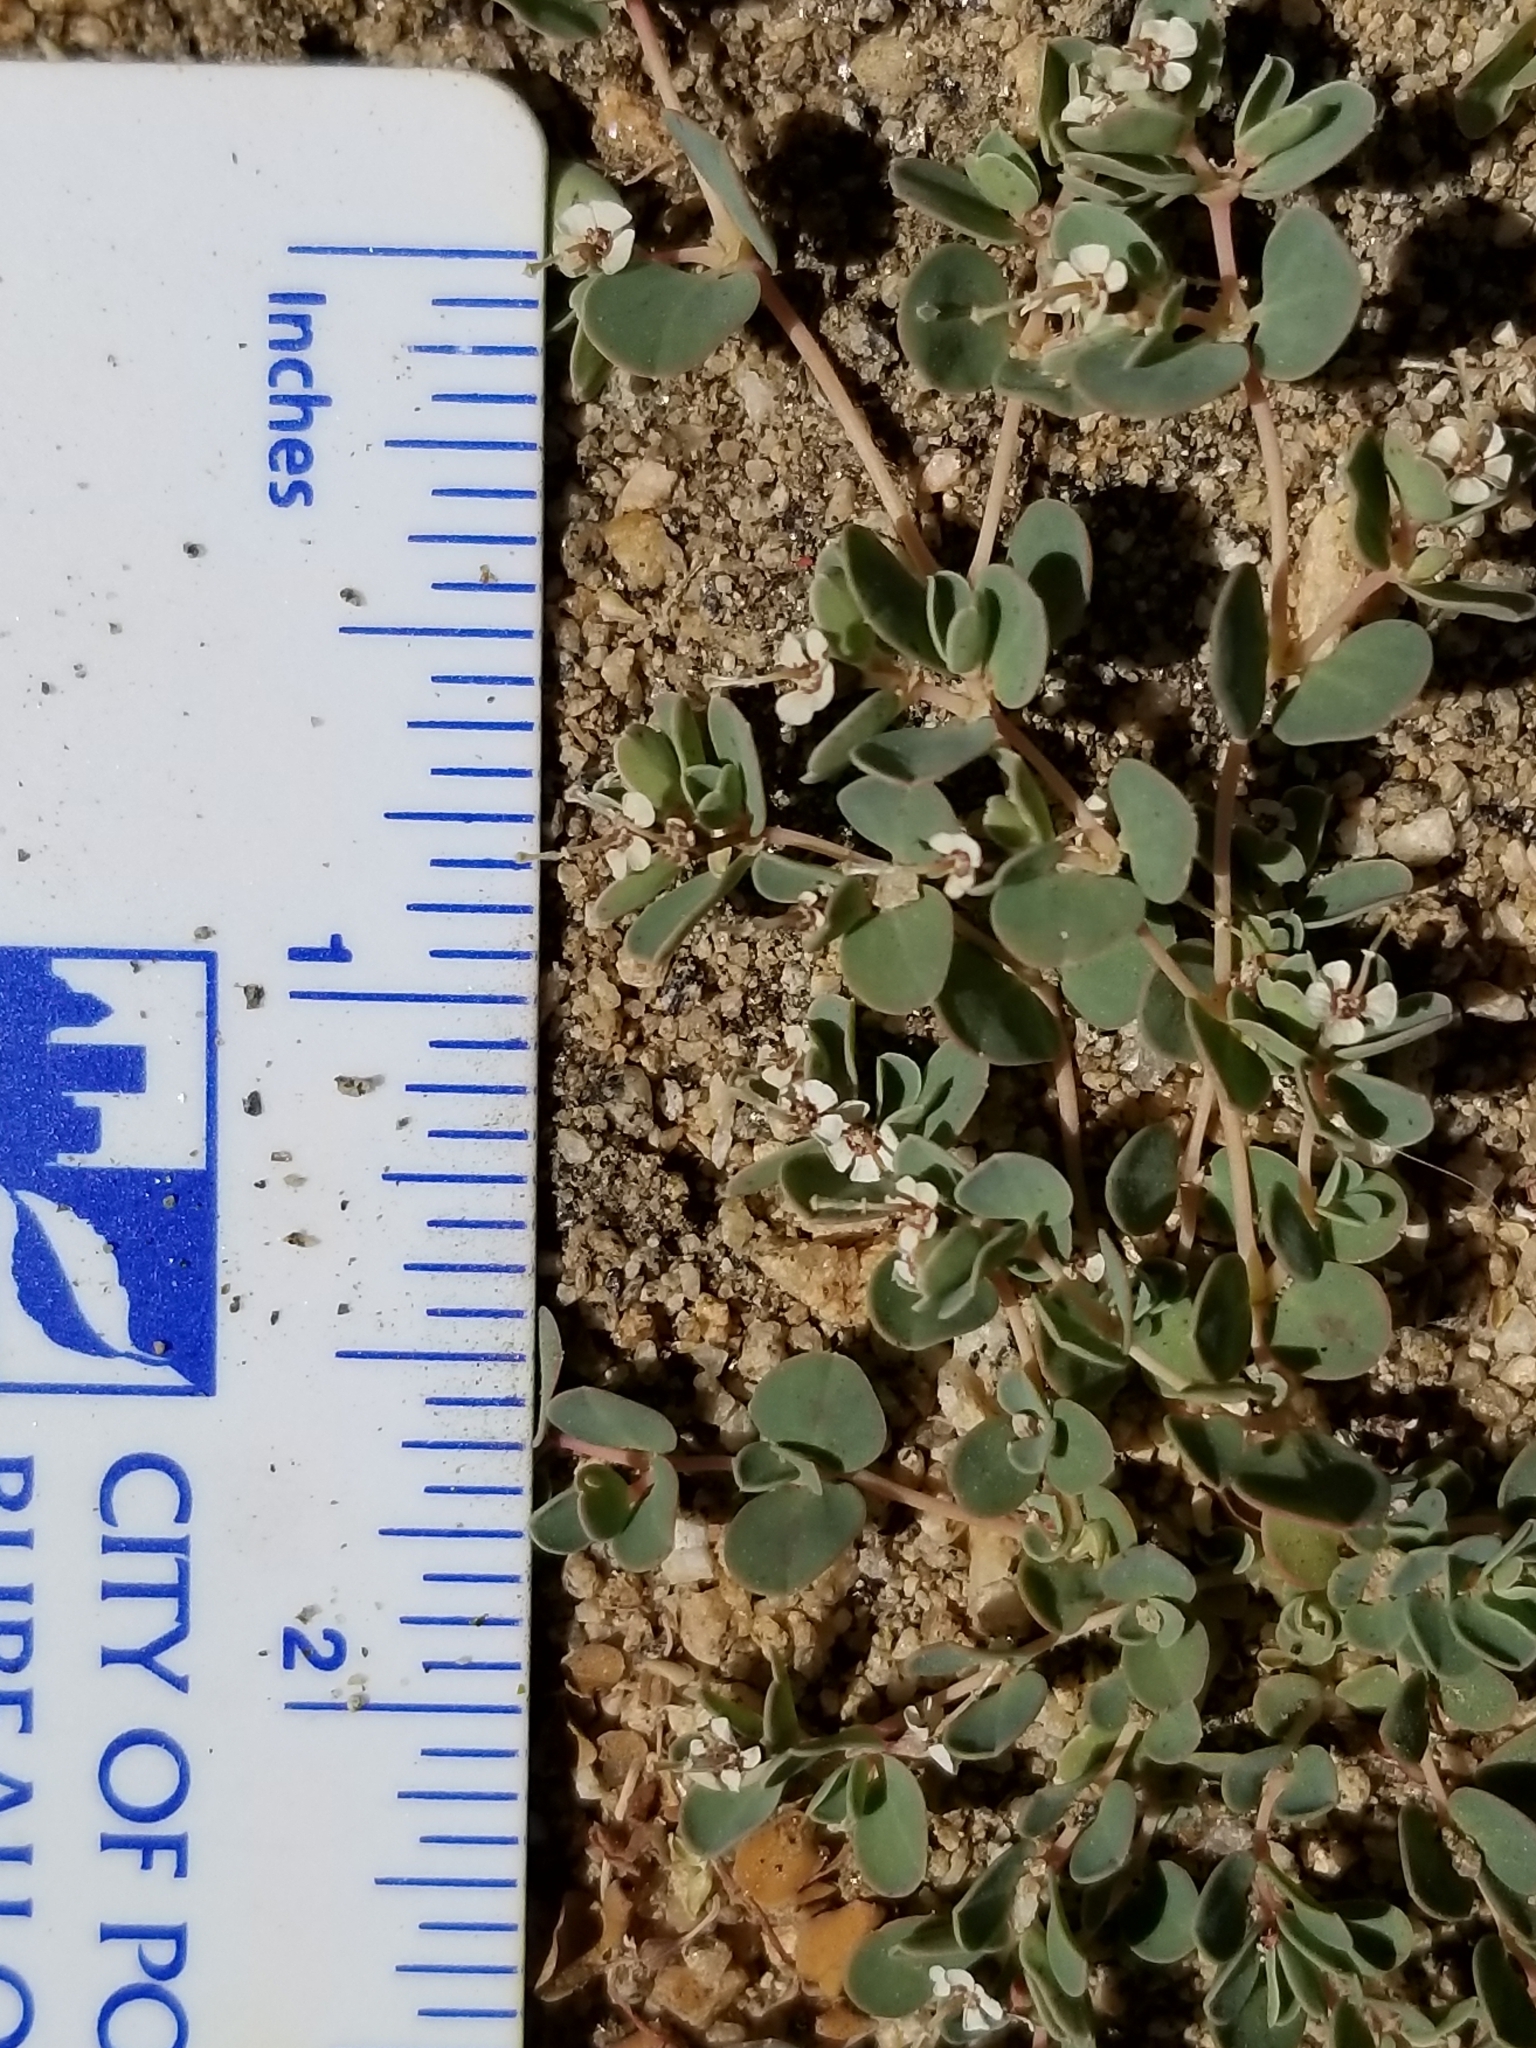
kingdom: Plantae
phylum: Tracheophyta
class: Magnoliopsida
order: Malpighiales
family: Euphorbiaceae
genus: Euphorbia
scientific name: Euphorbia albomarginata
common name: Whitemargin sandmat
